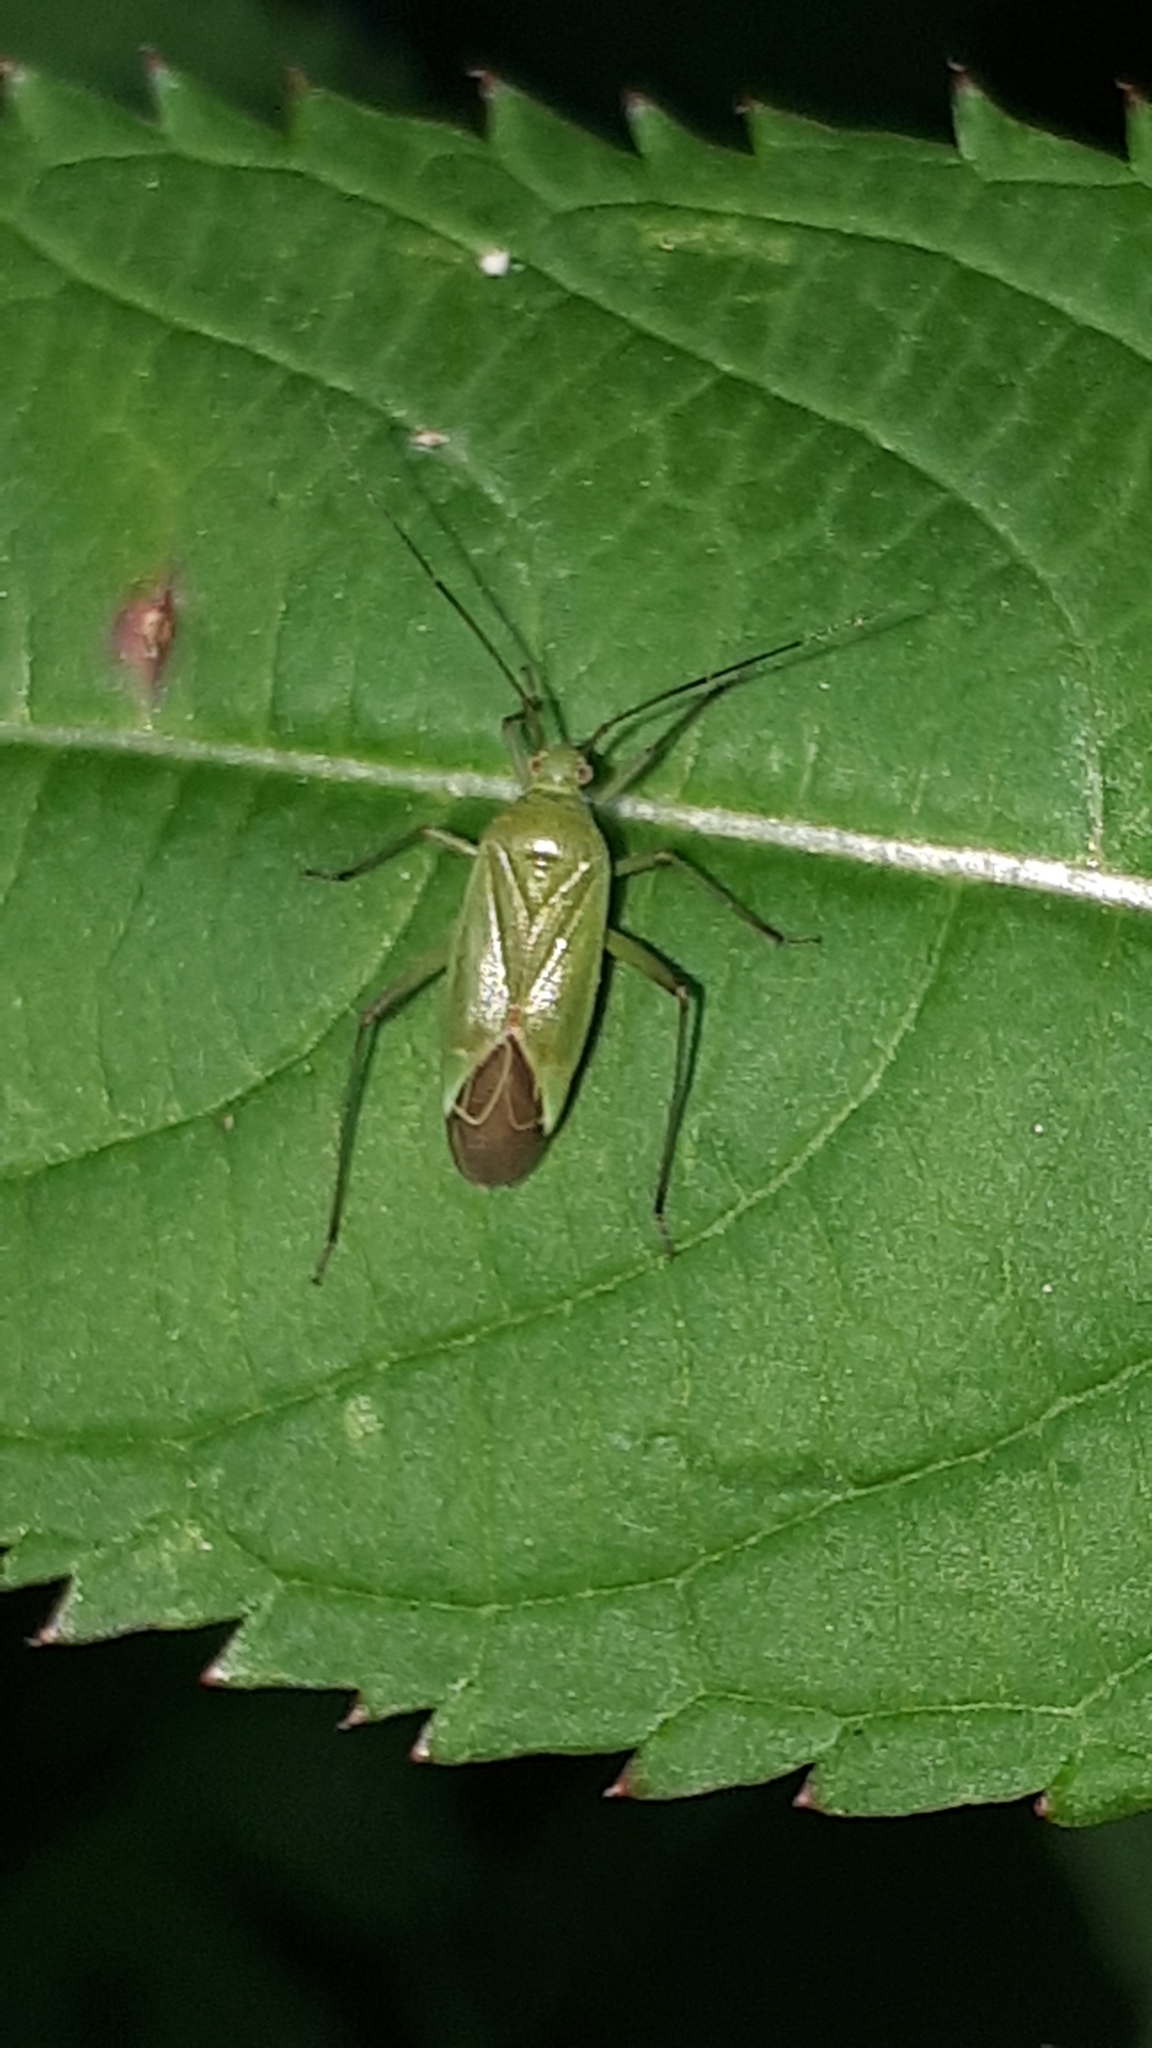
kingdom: Animalia
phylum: Arthropoda
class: Insecta
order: Hemiptera
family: Miridae
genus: Calocoris
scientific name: Calocoris affinis
